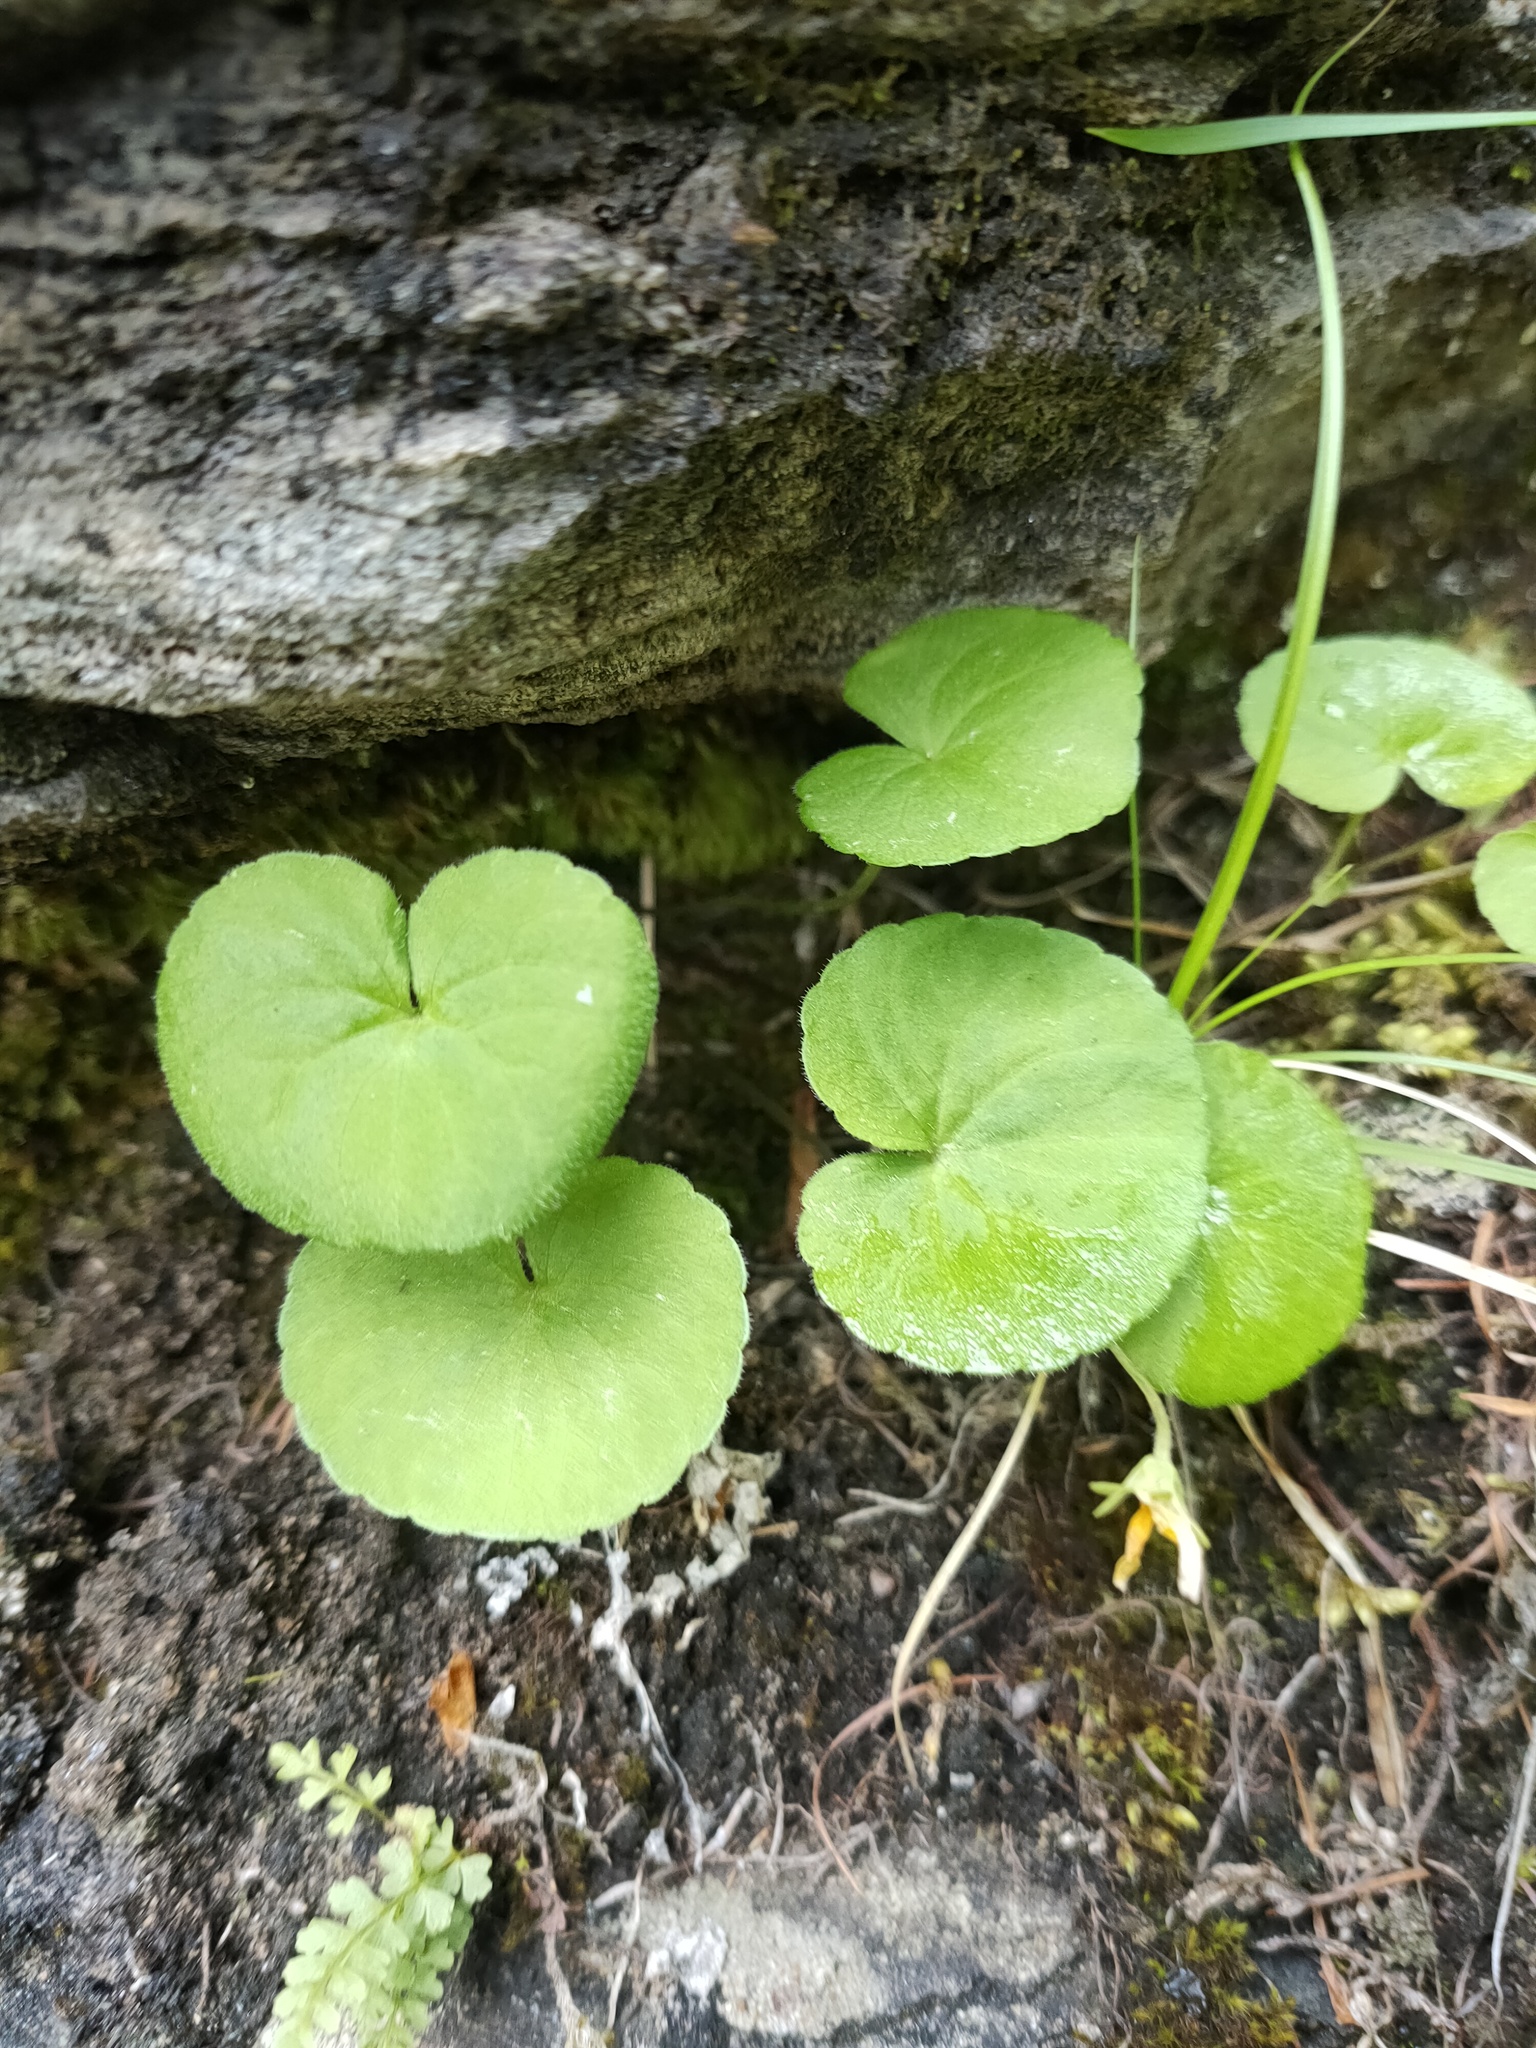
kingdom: Plantae
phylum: Tracheophyta
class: Magnoliopsida
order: Malpighiales
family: Violaceae
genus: Viola
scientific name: Viola biflora
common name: Alpine yellow violet
